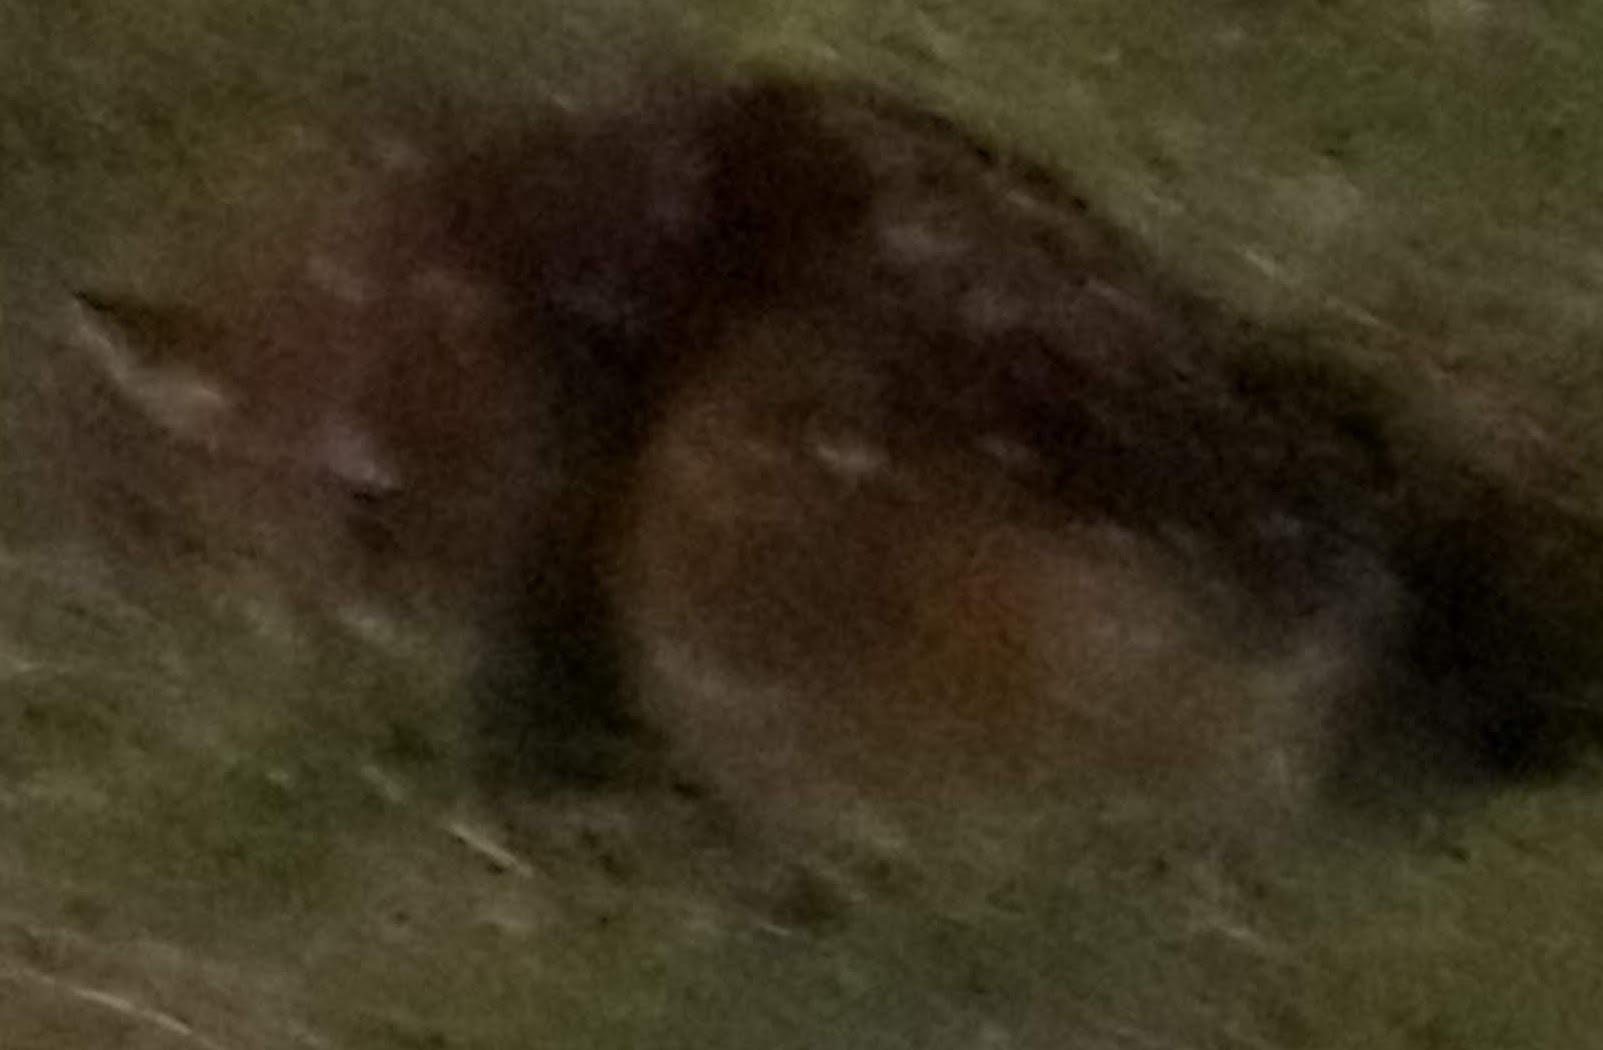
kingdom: Animalia
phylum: Chordata
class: Mammalia
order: Artiodactyla
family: Cervidae
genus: Odocoileus
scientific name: Odocoileus virginianus
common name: White-tailed deer
